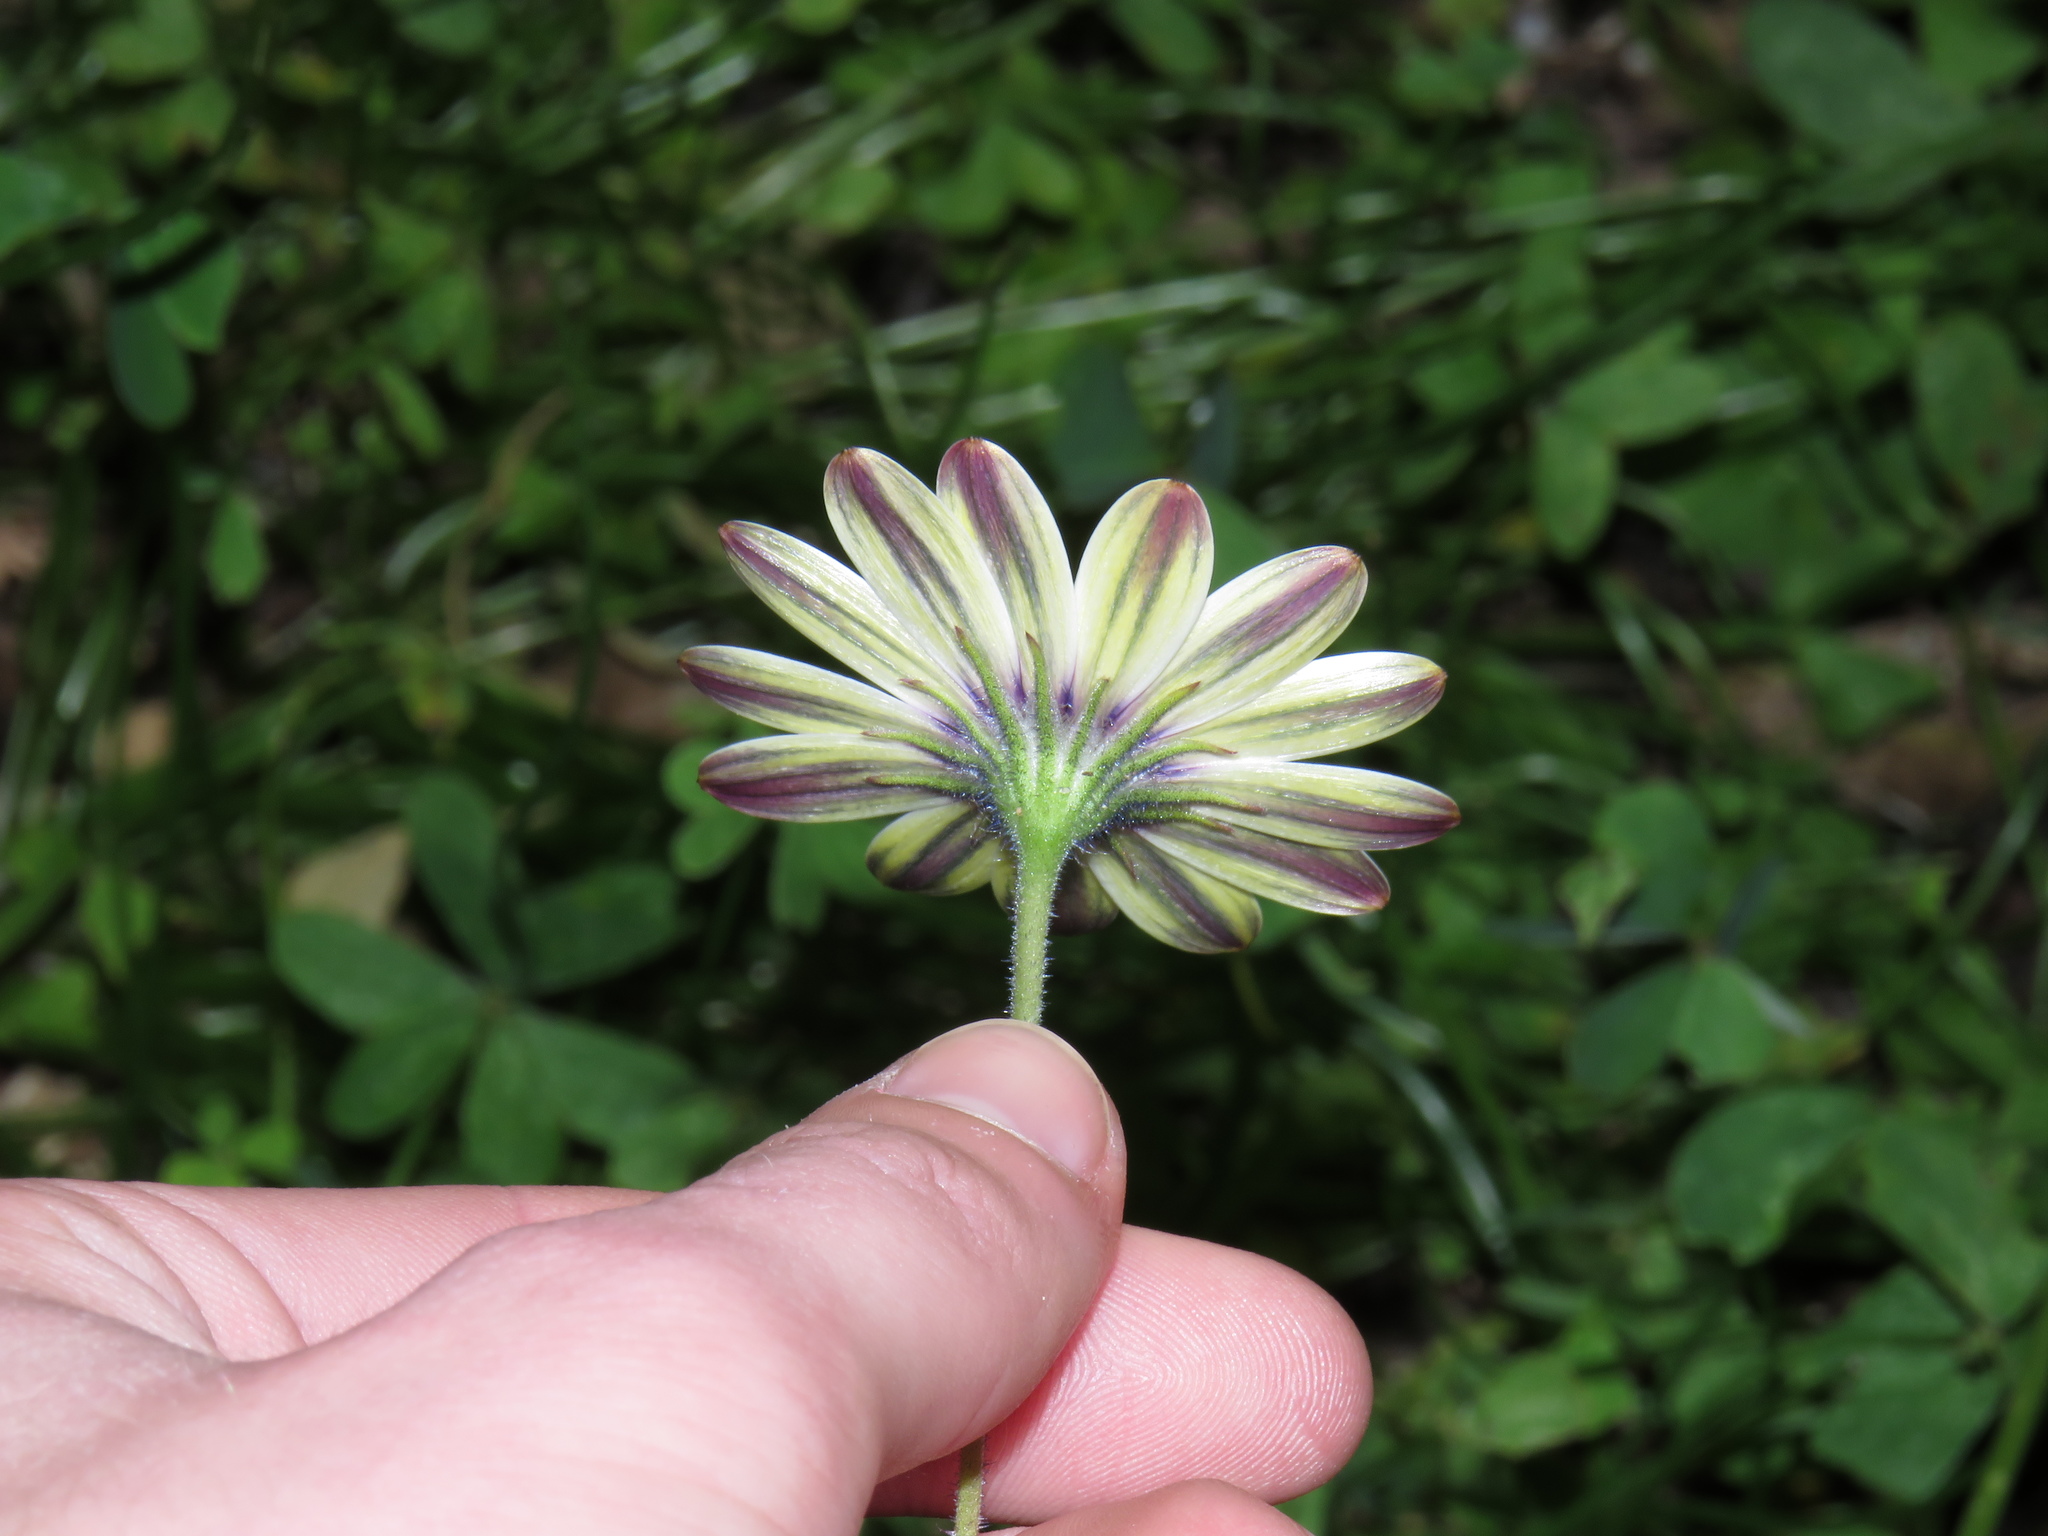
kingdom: Plantae
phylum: Tracheophyta
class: Magnoliopsida
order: Asterales
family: Asteraceae
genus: Dimorphotheca
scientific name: Dimorphotheca pluvialis
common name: Weather prophet
